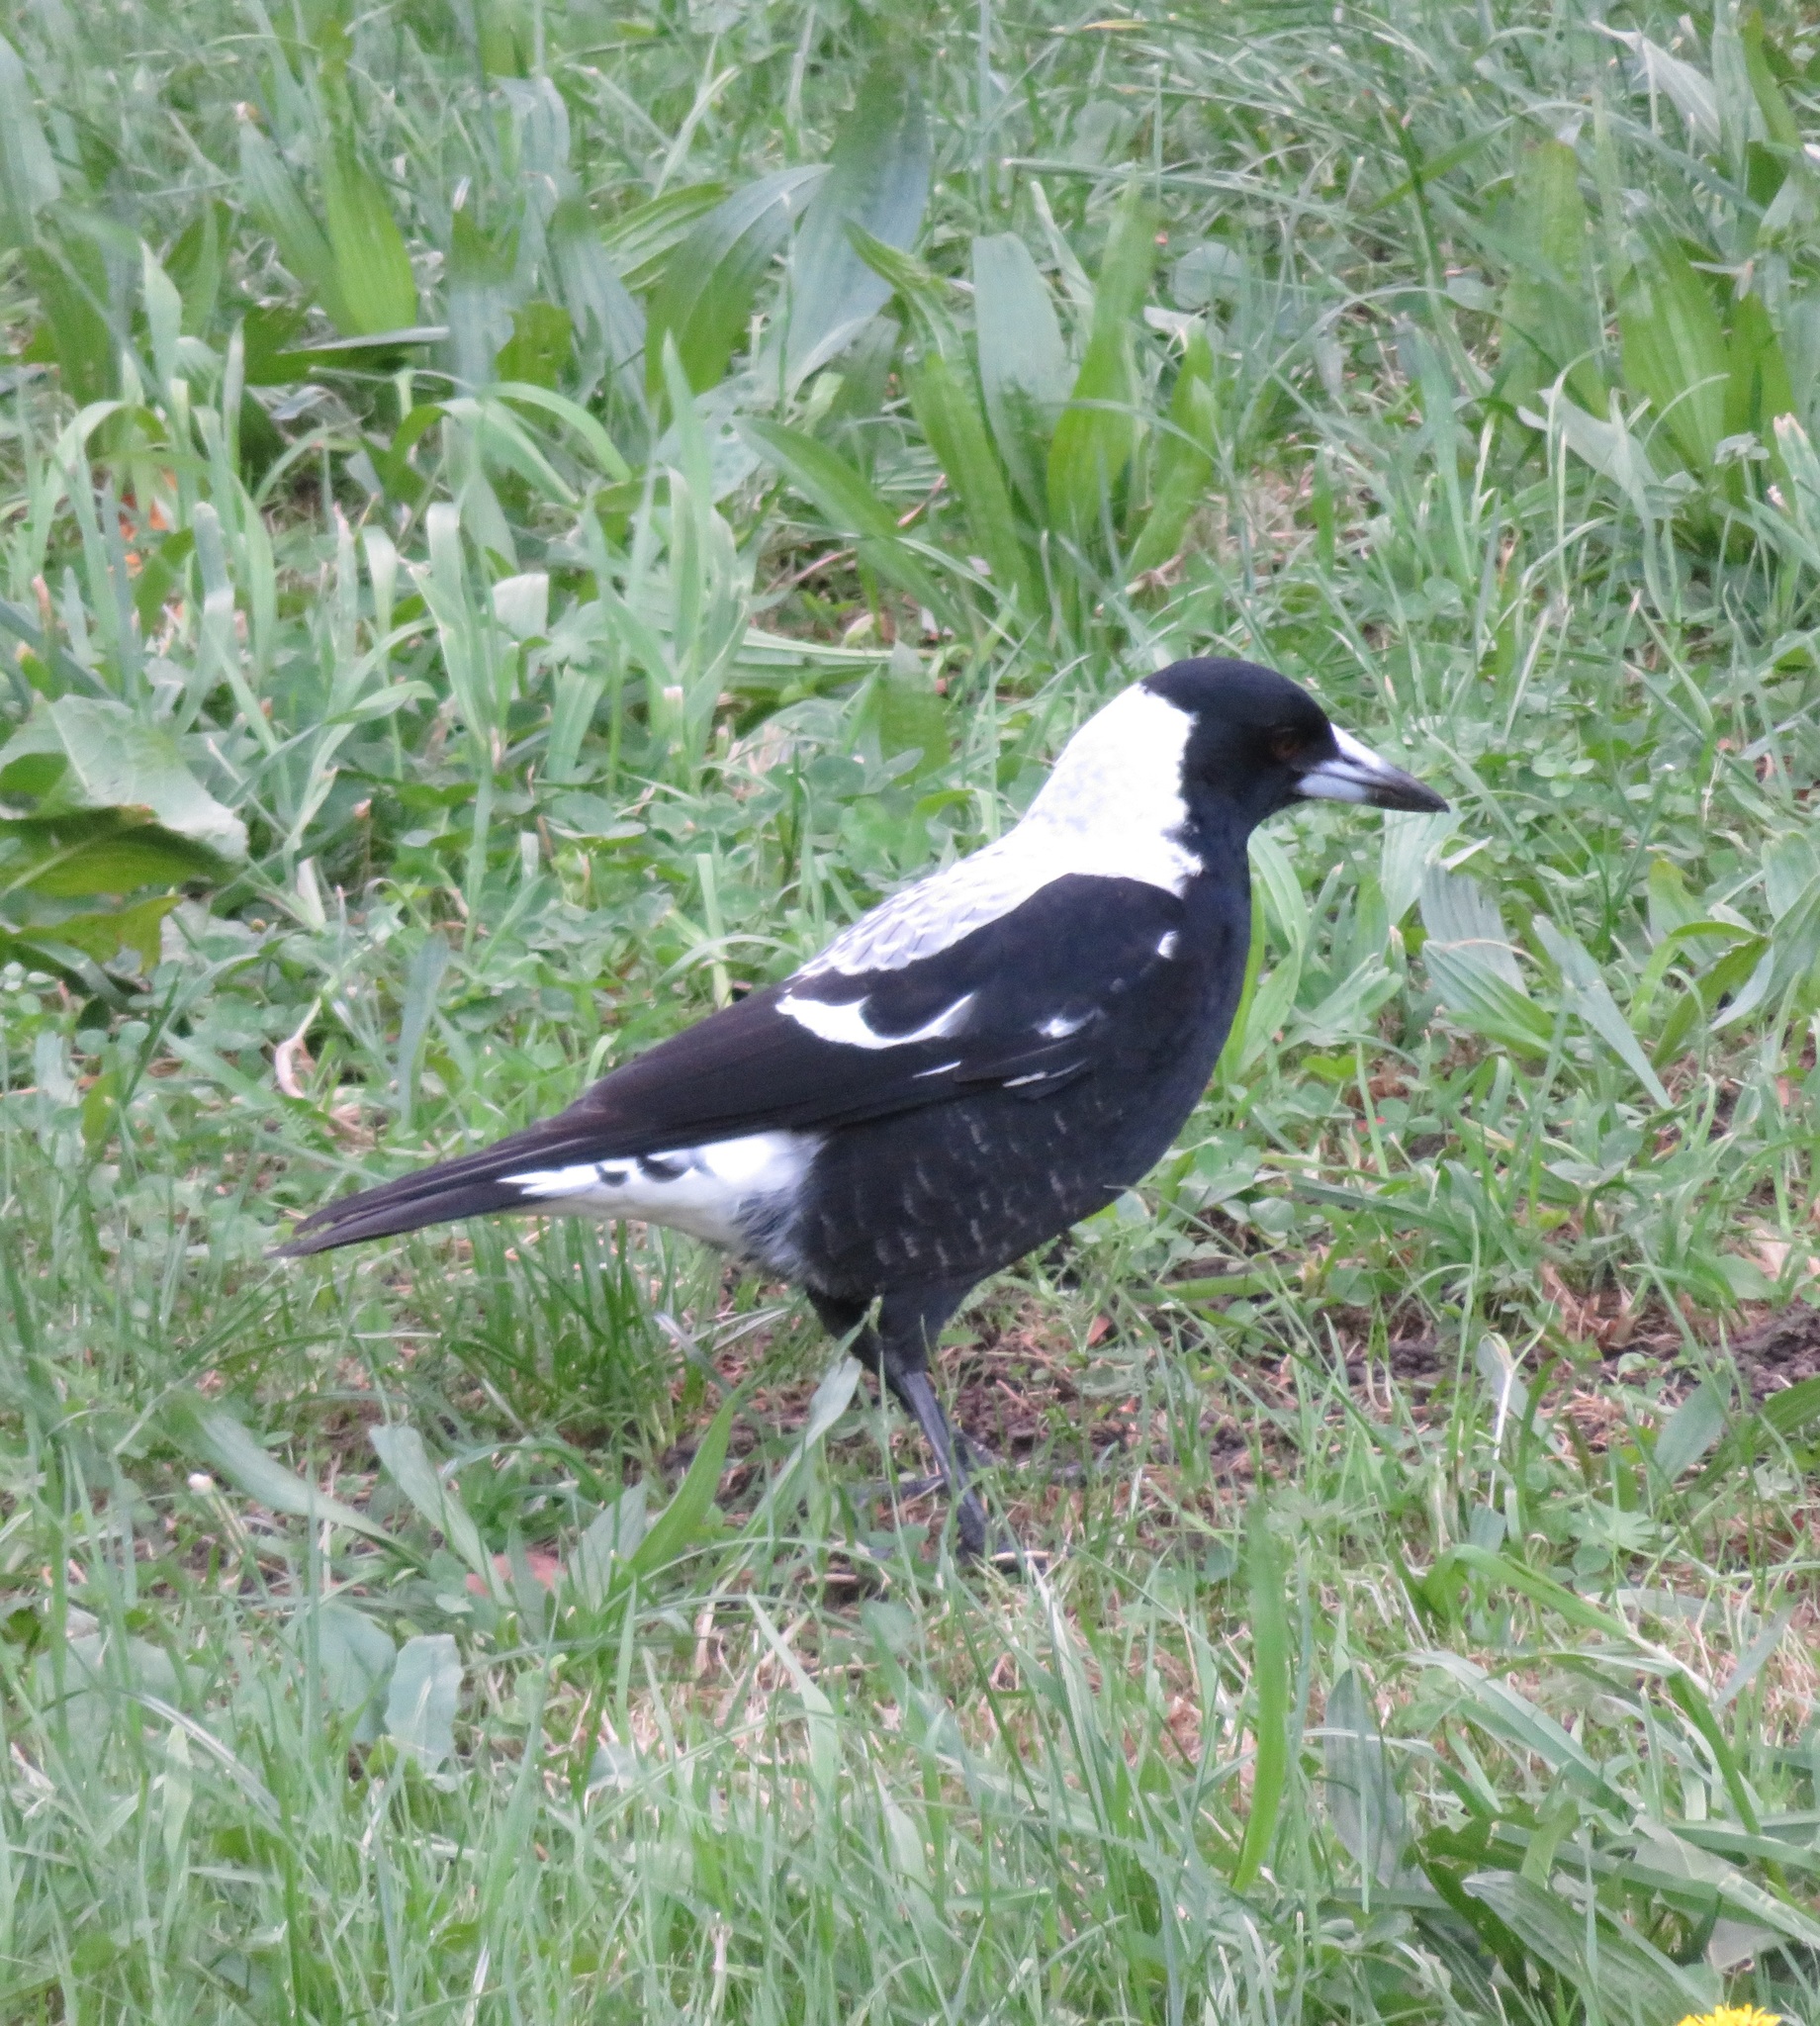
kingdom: Animalia
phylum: Chordata
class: Aves
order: Passeriformes
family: Cracticidae
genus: Gymnorhina
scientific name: Gymnorhina tibicen
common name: Australian magpie
